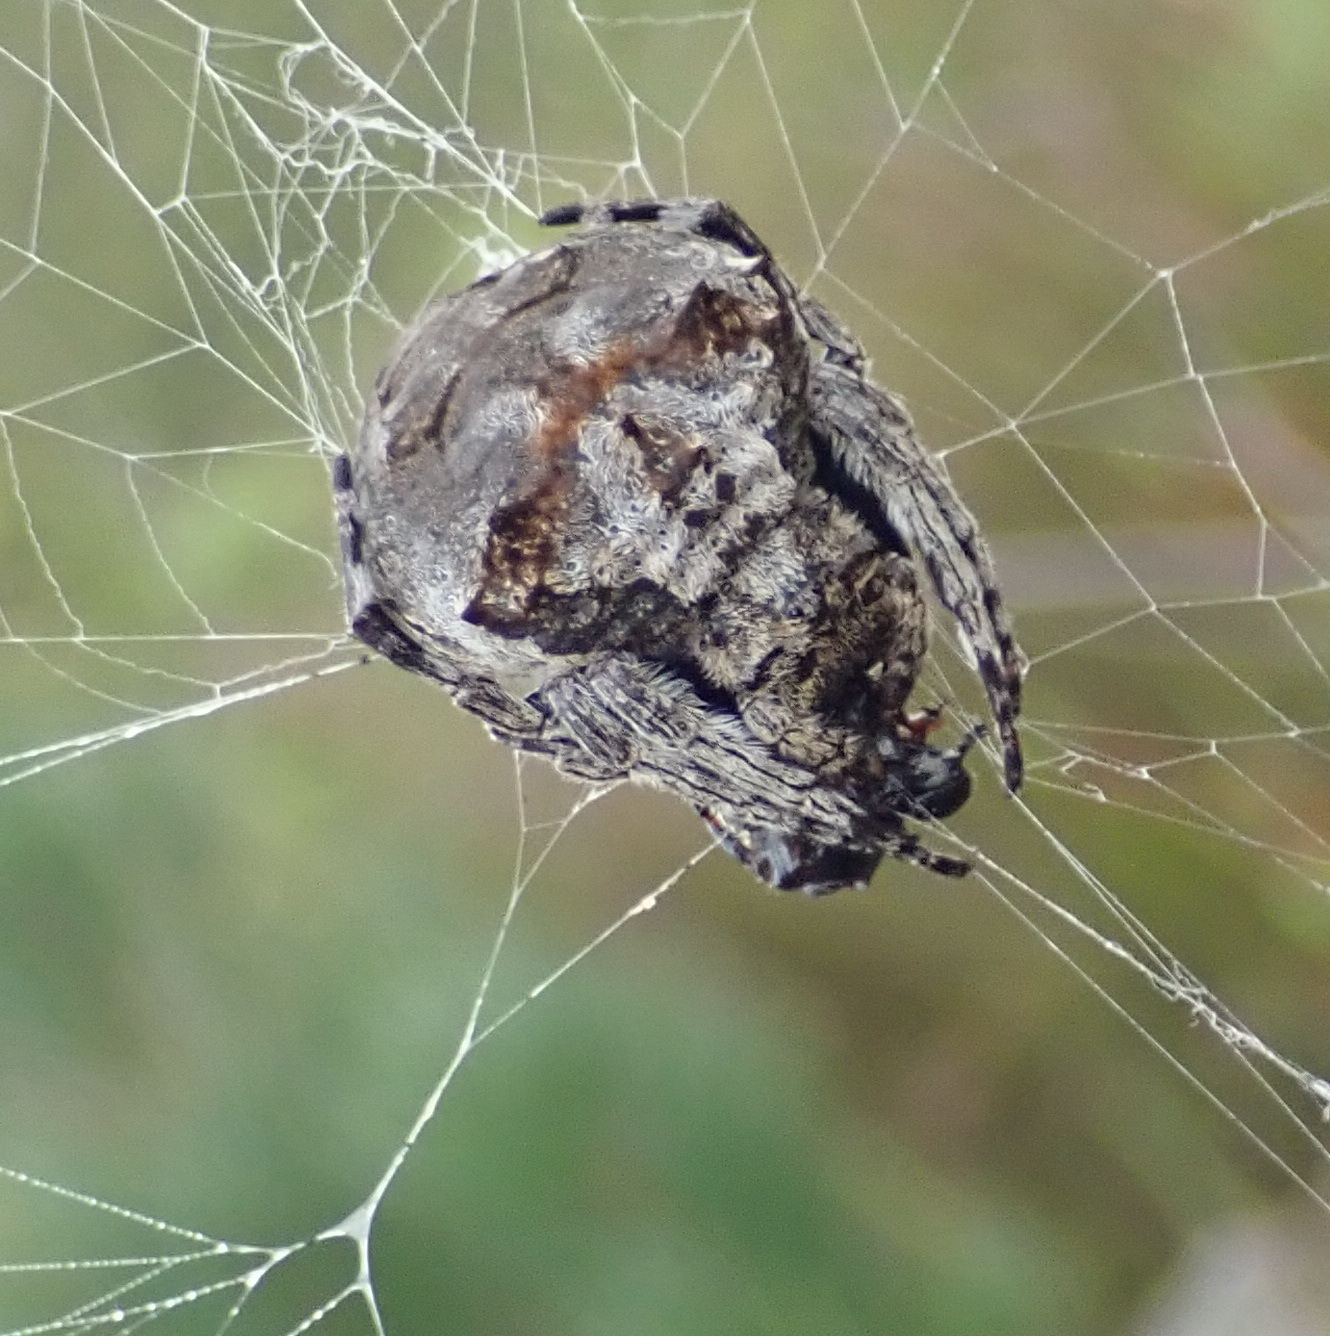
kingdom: Animalia
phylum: Arthropoda
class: Arachnida
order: Araneae
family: Araneidae
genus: Caerostris
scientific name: Caerostris sexcuspidata
